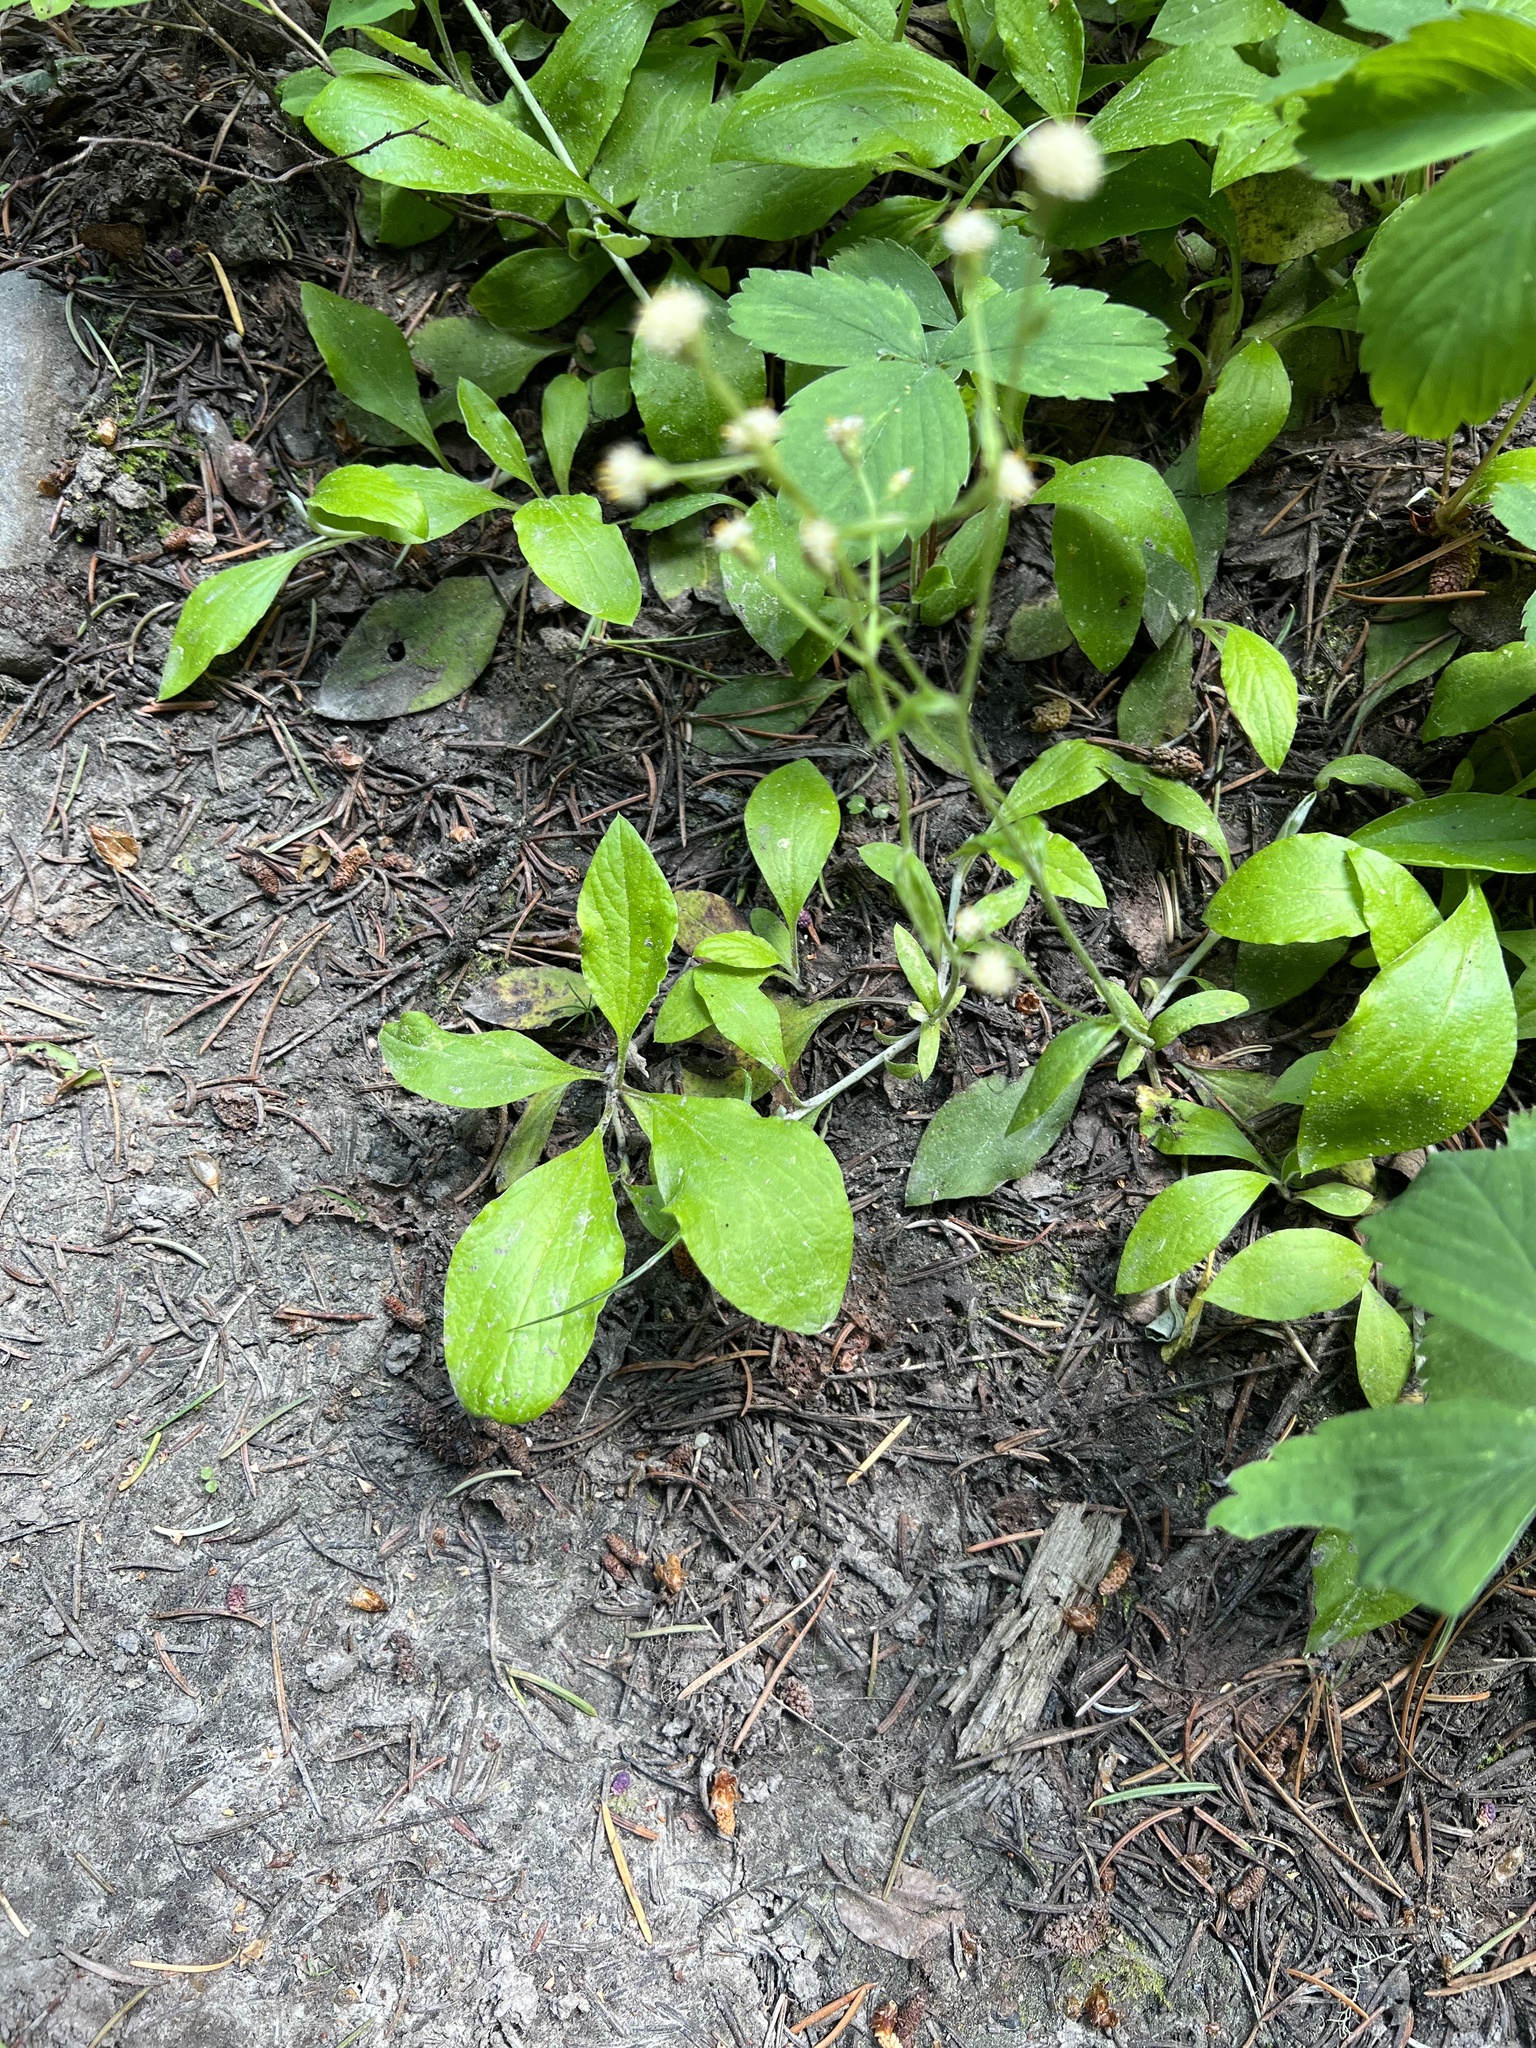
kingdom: Plantae
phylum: Tracheophyta
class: Magnoliopsida
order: Asterales
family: Asteraceae
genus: Antennaria
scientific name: Antennaria racemosa
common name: Racemose pussytoes
